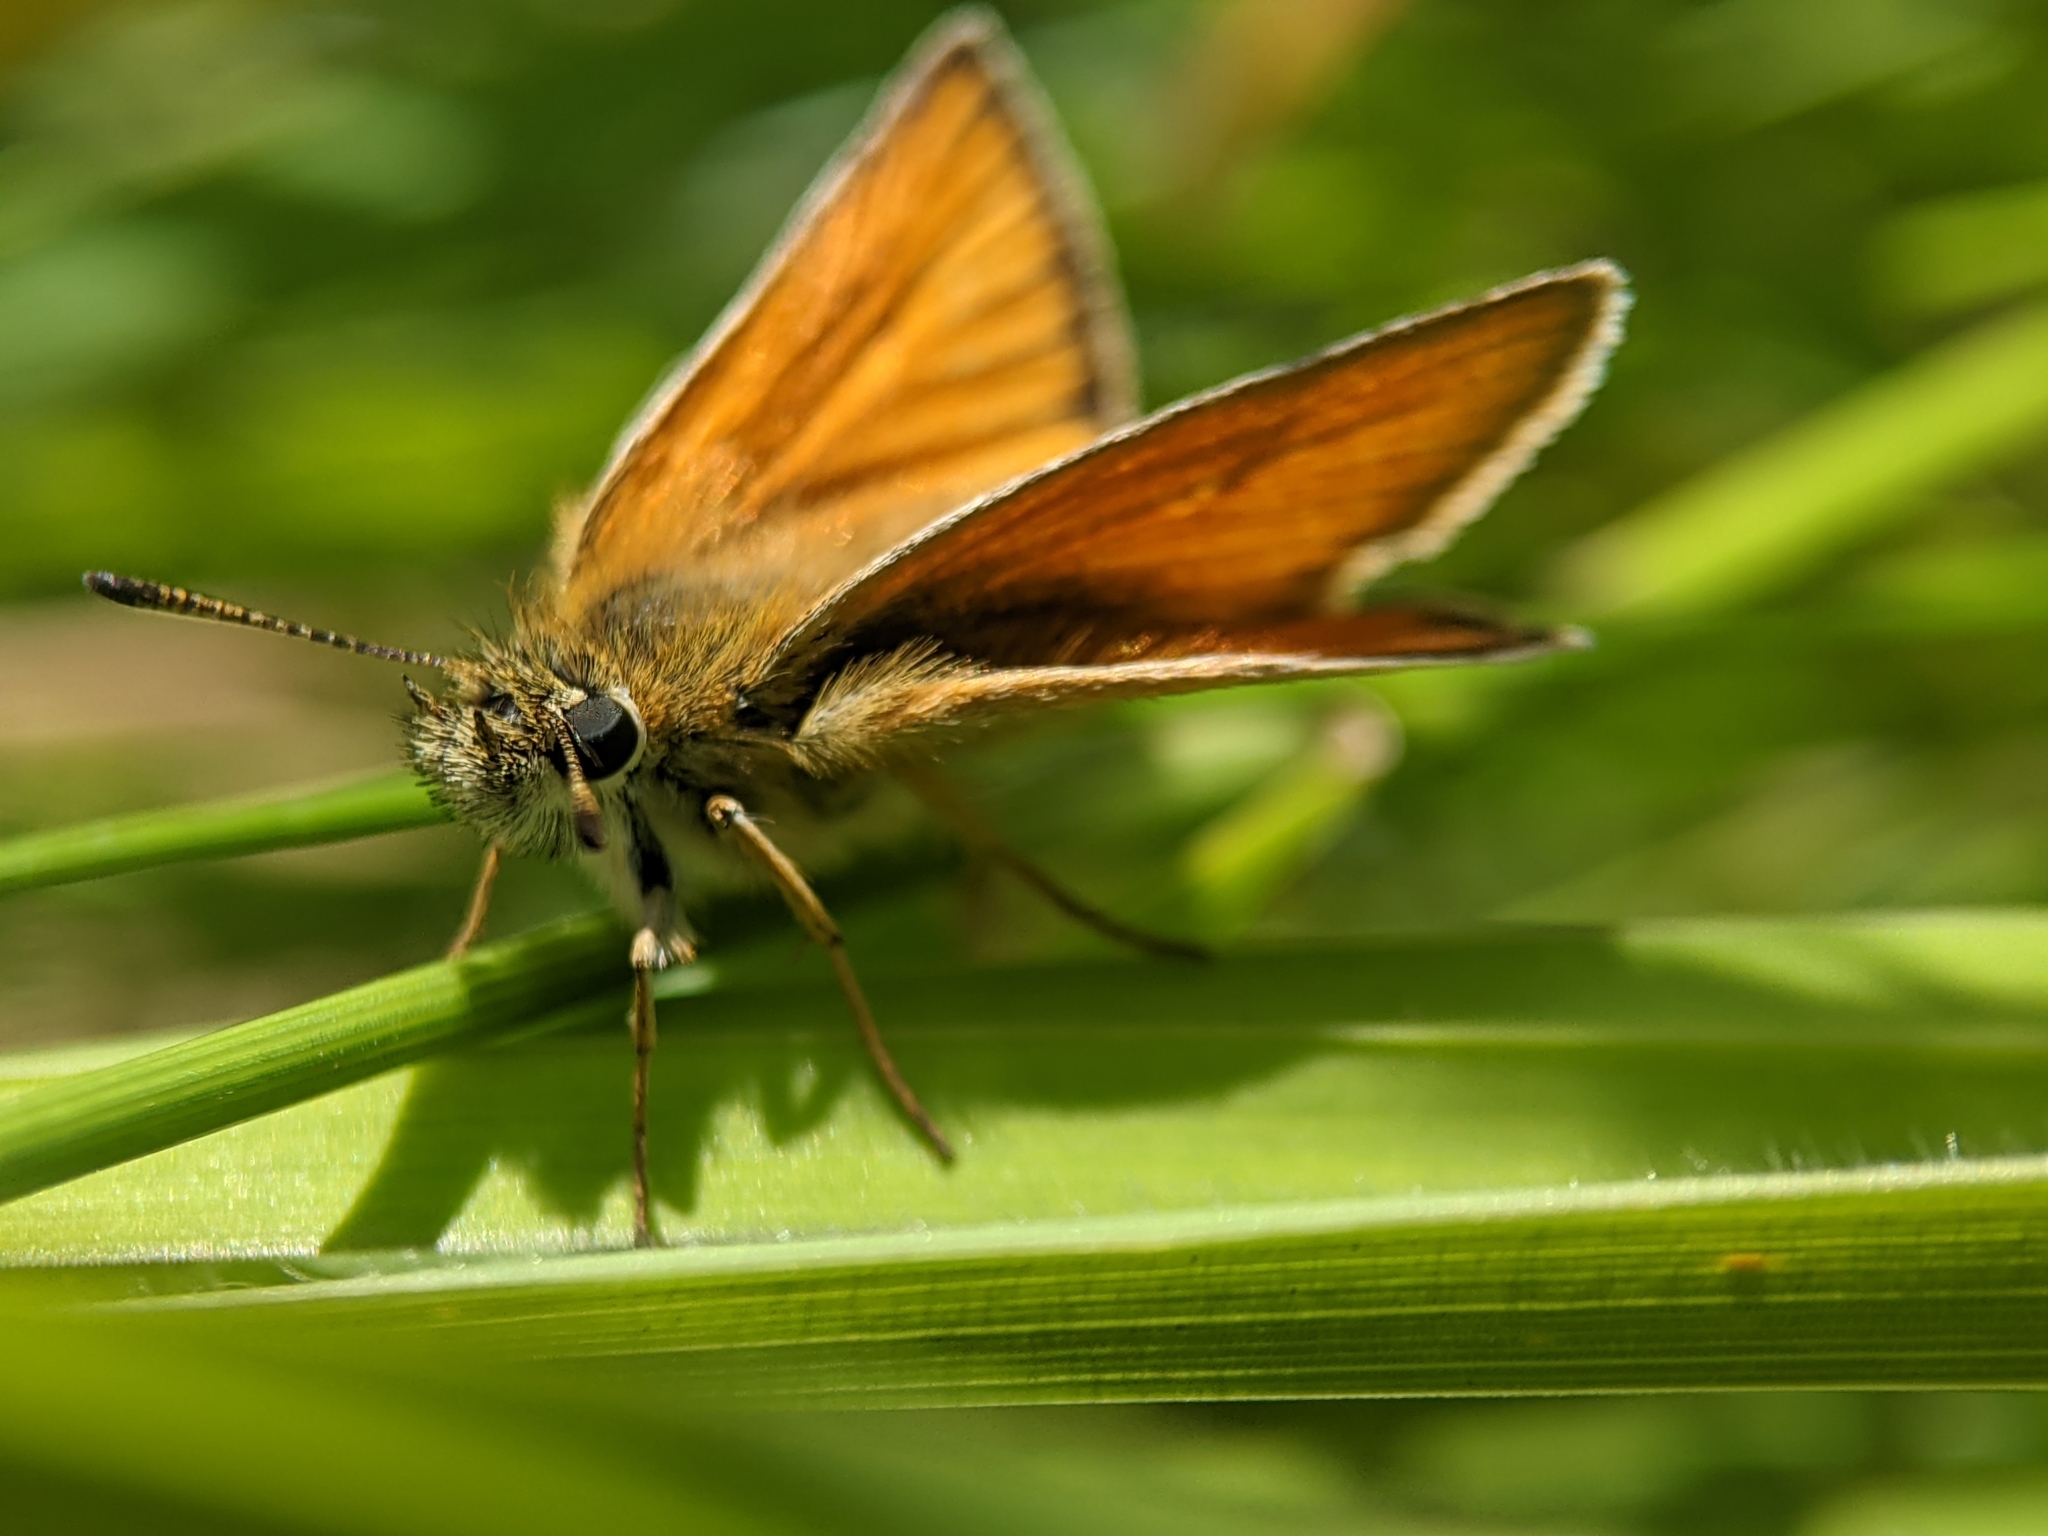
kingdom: Animalia
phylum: Arthropoda
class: Insecta
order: Lepidoptera
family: Hesperiidae
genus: Thymelicus
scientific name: Thymelicus lineola
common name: Essex skipper
